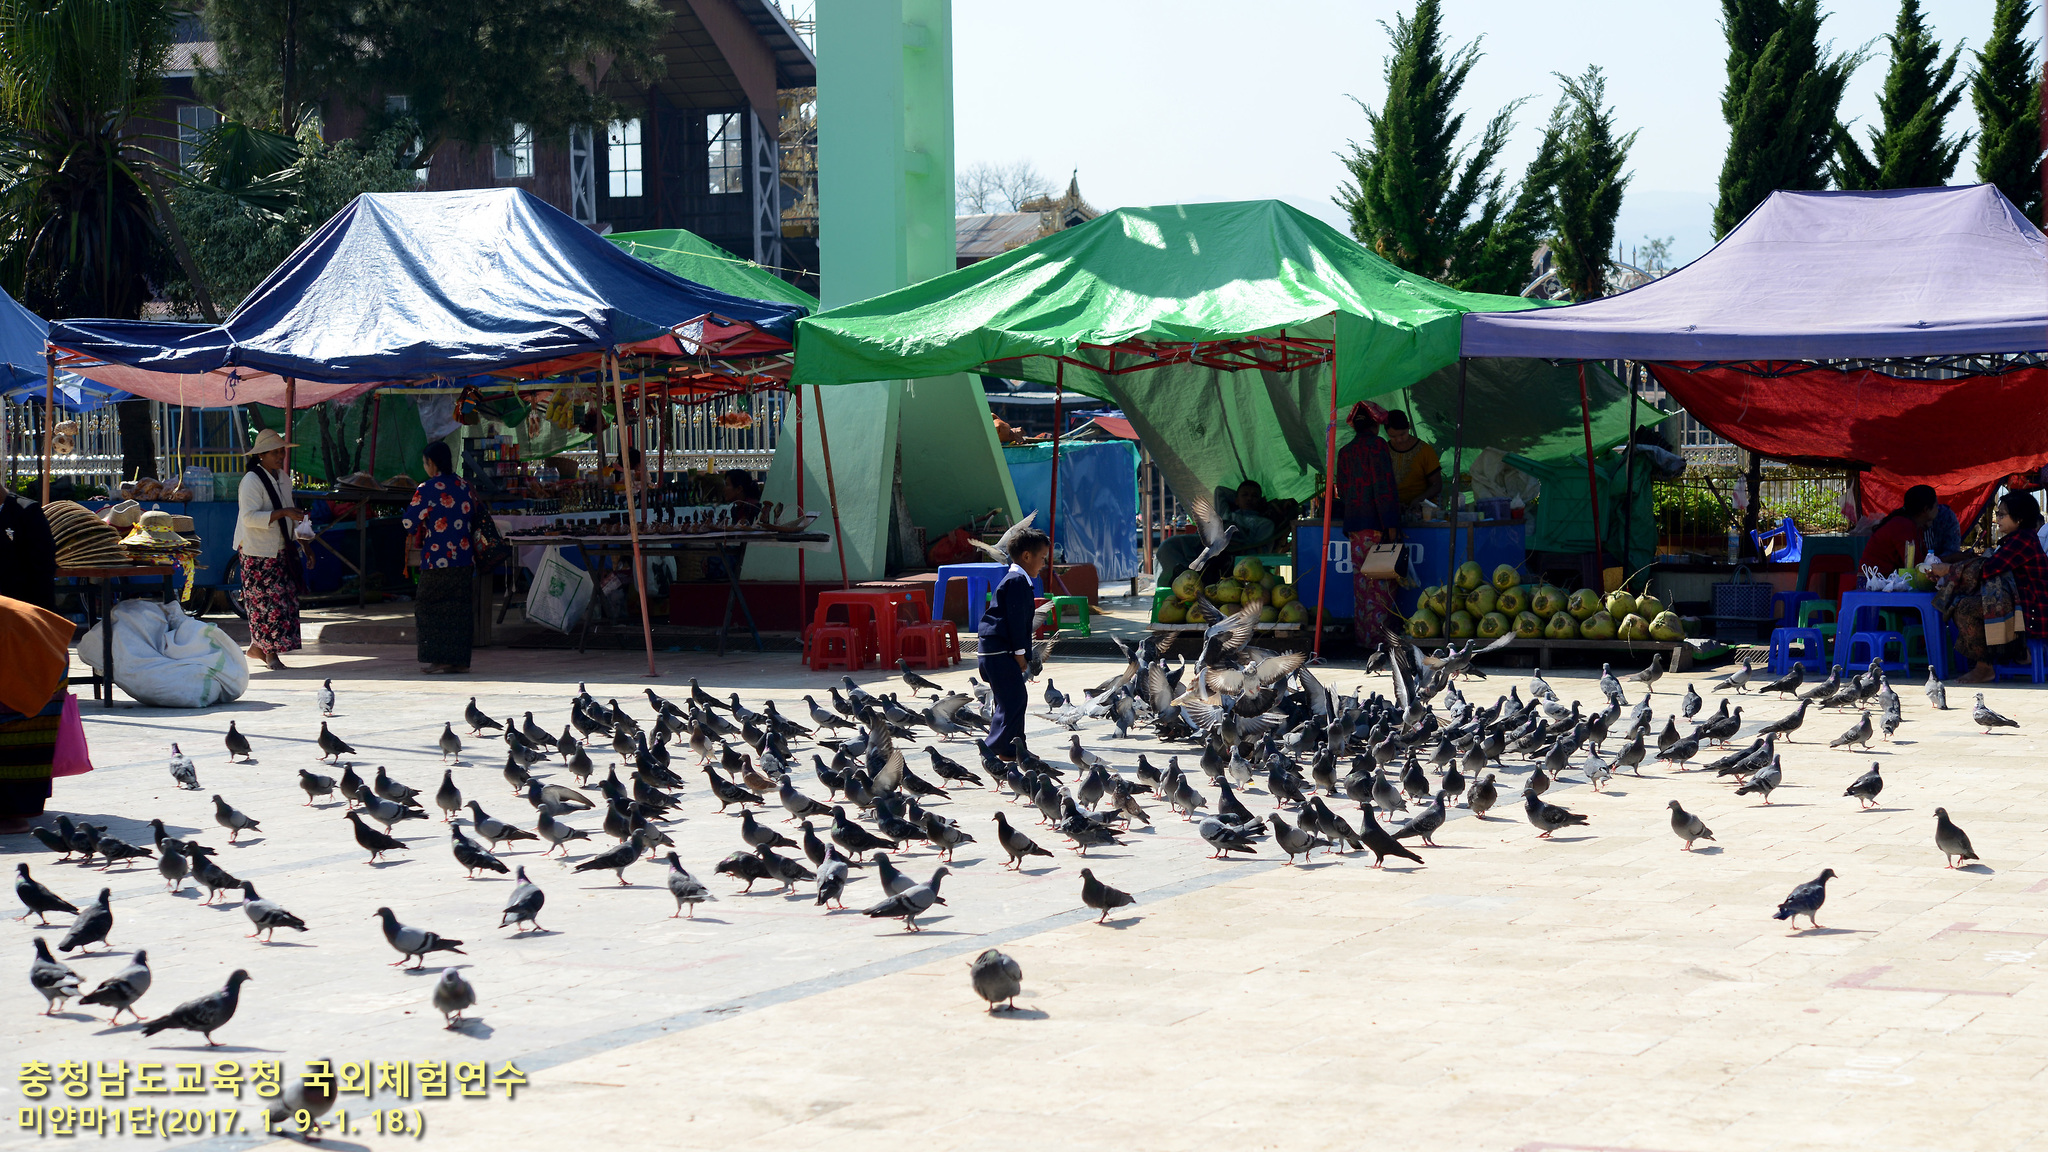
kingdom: Animalia
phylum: Chordata
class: Aves
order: Columbiformes
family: Columbidae
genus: Columba
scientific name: Columba livia
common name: Rock pigeon
